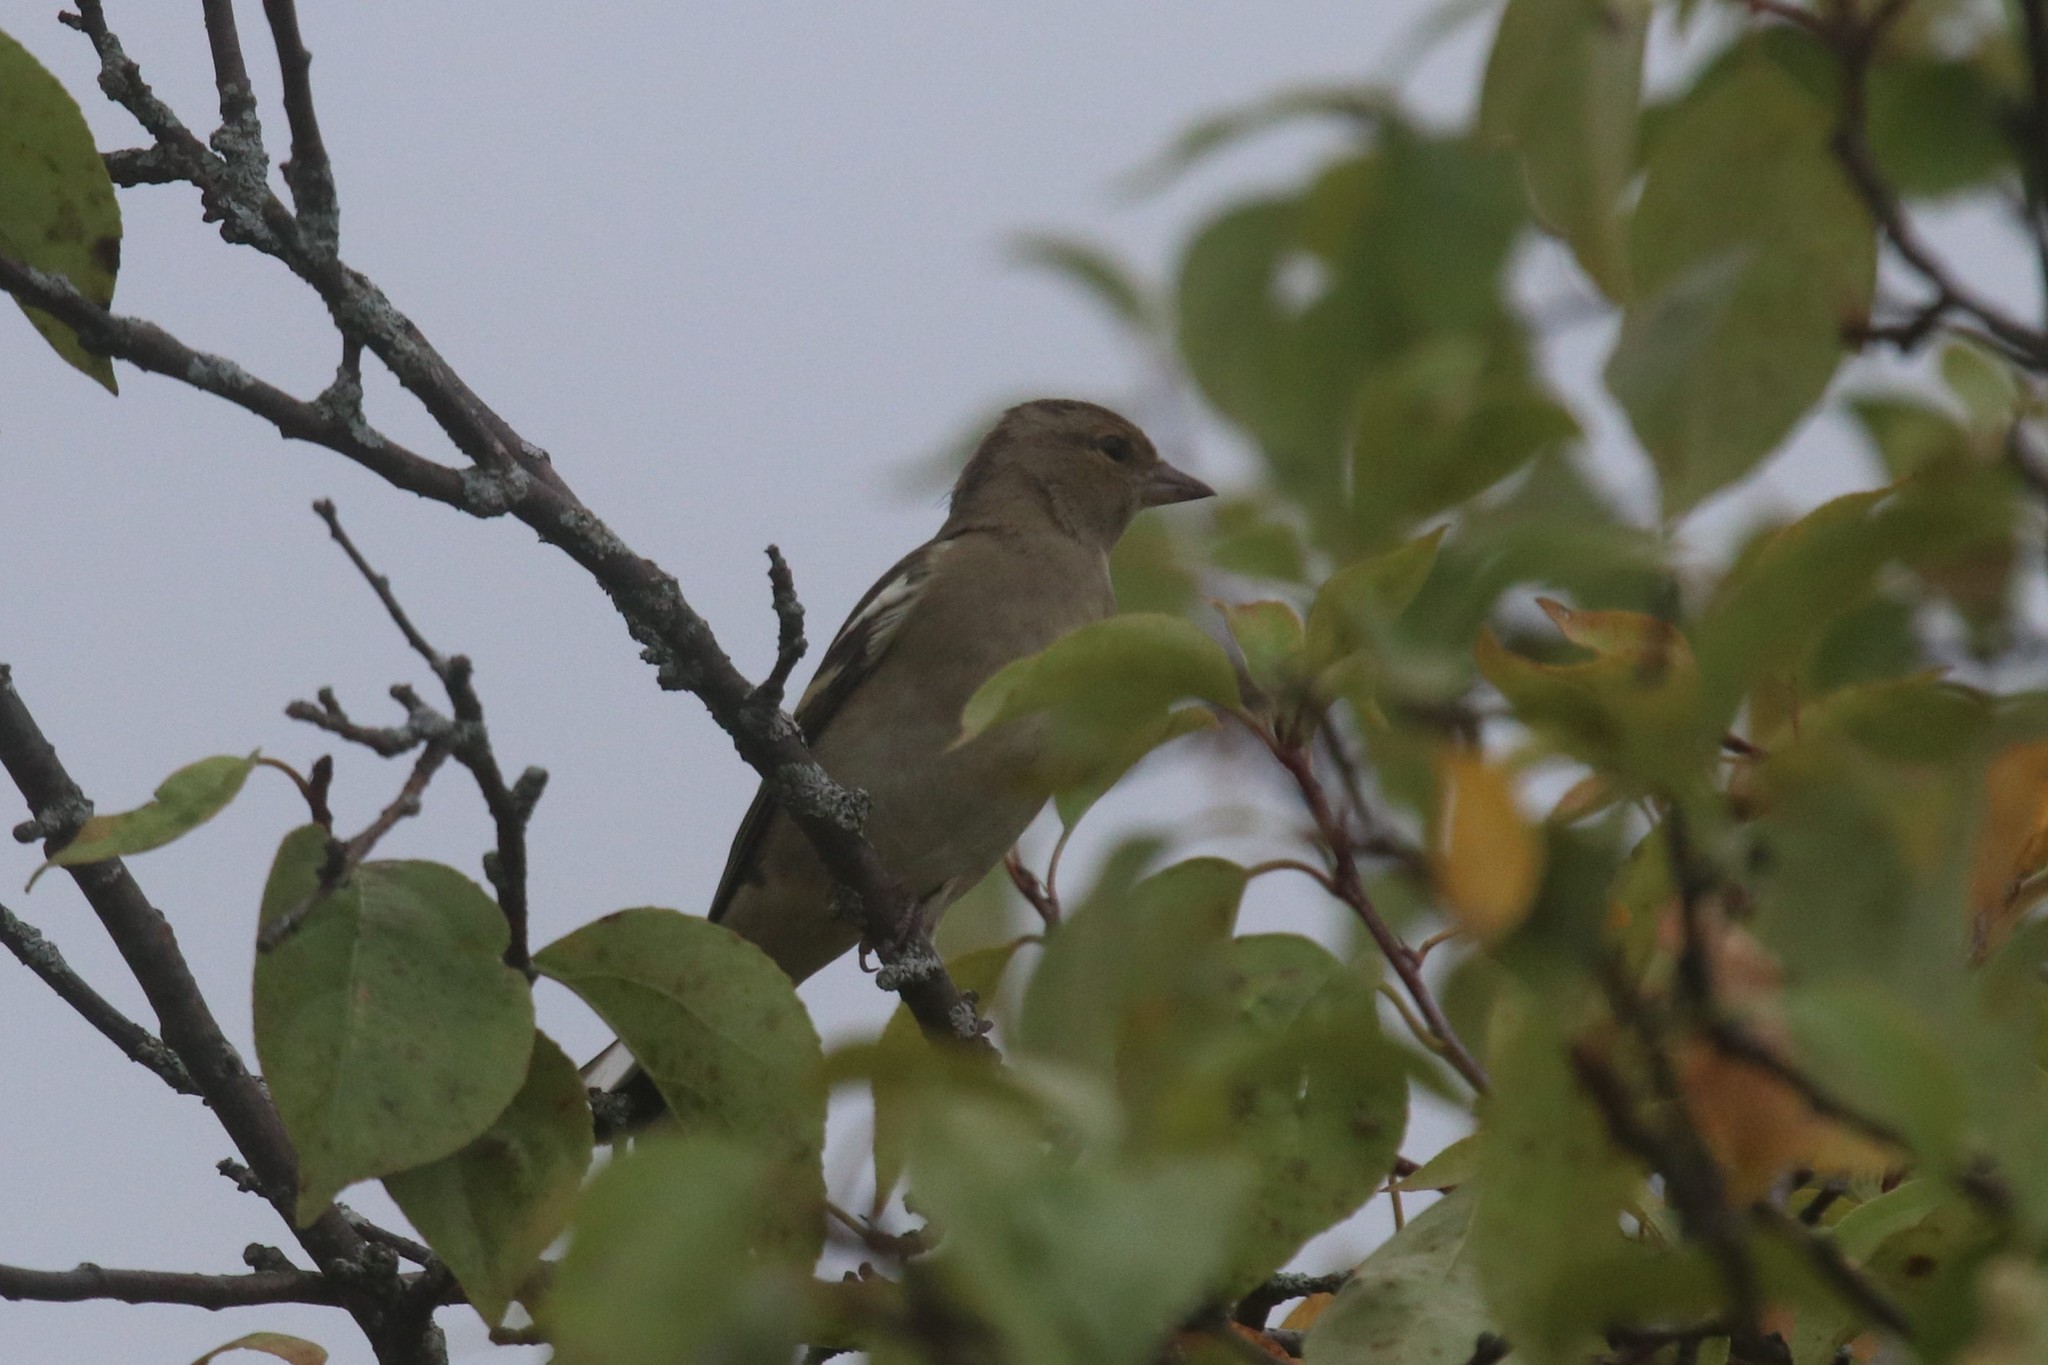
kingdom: Animalia
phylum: Chordata
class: Aves
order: Passeriformes
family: Fringillidae
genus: Fringilla
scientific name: Fringilla coelebs
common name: Common chaffinch
